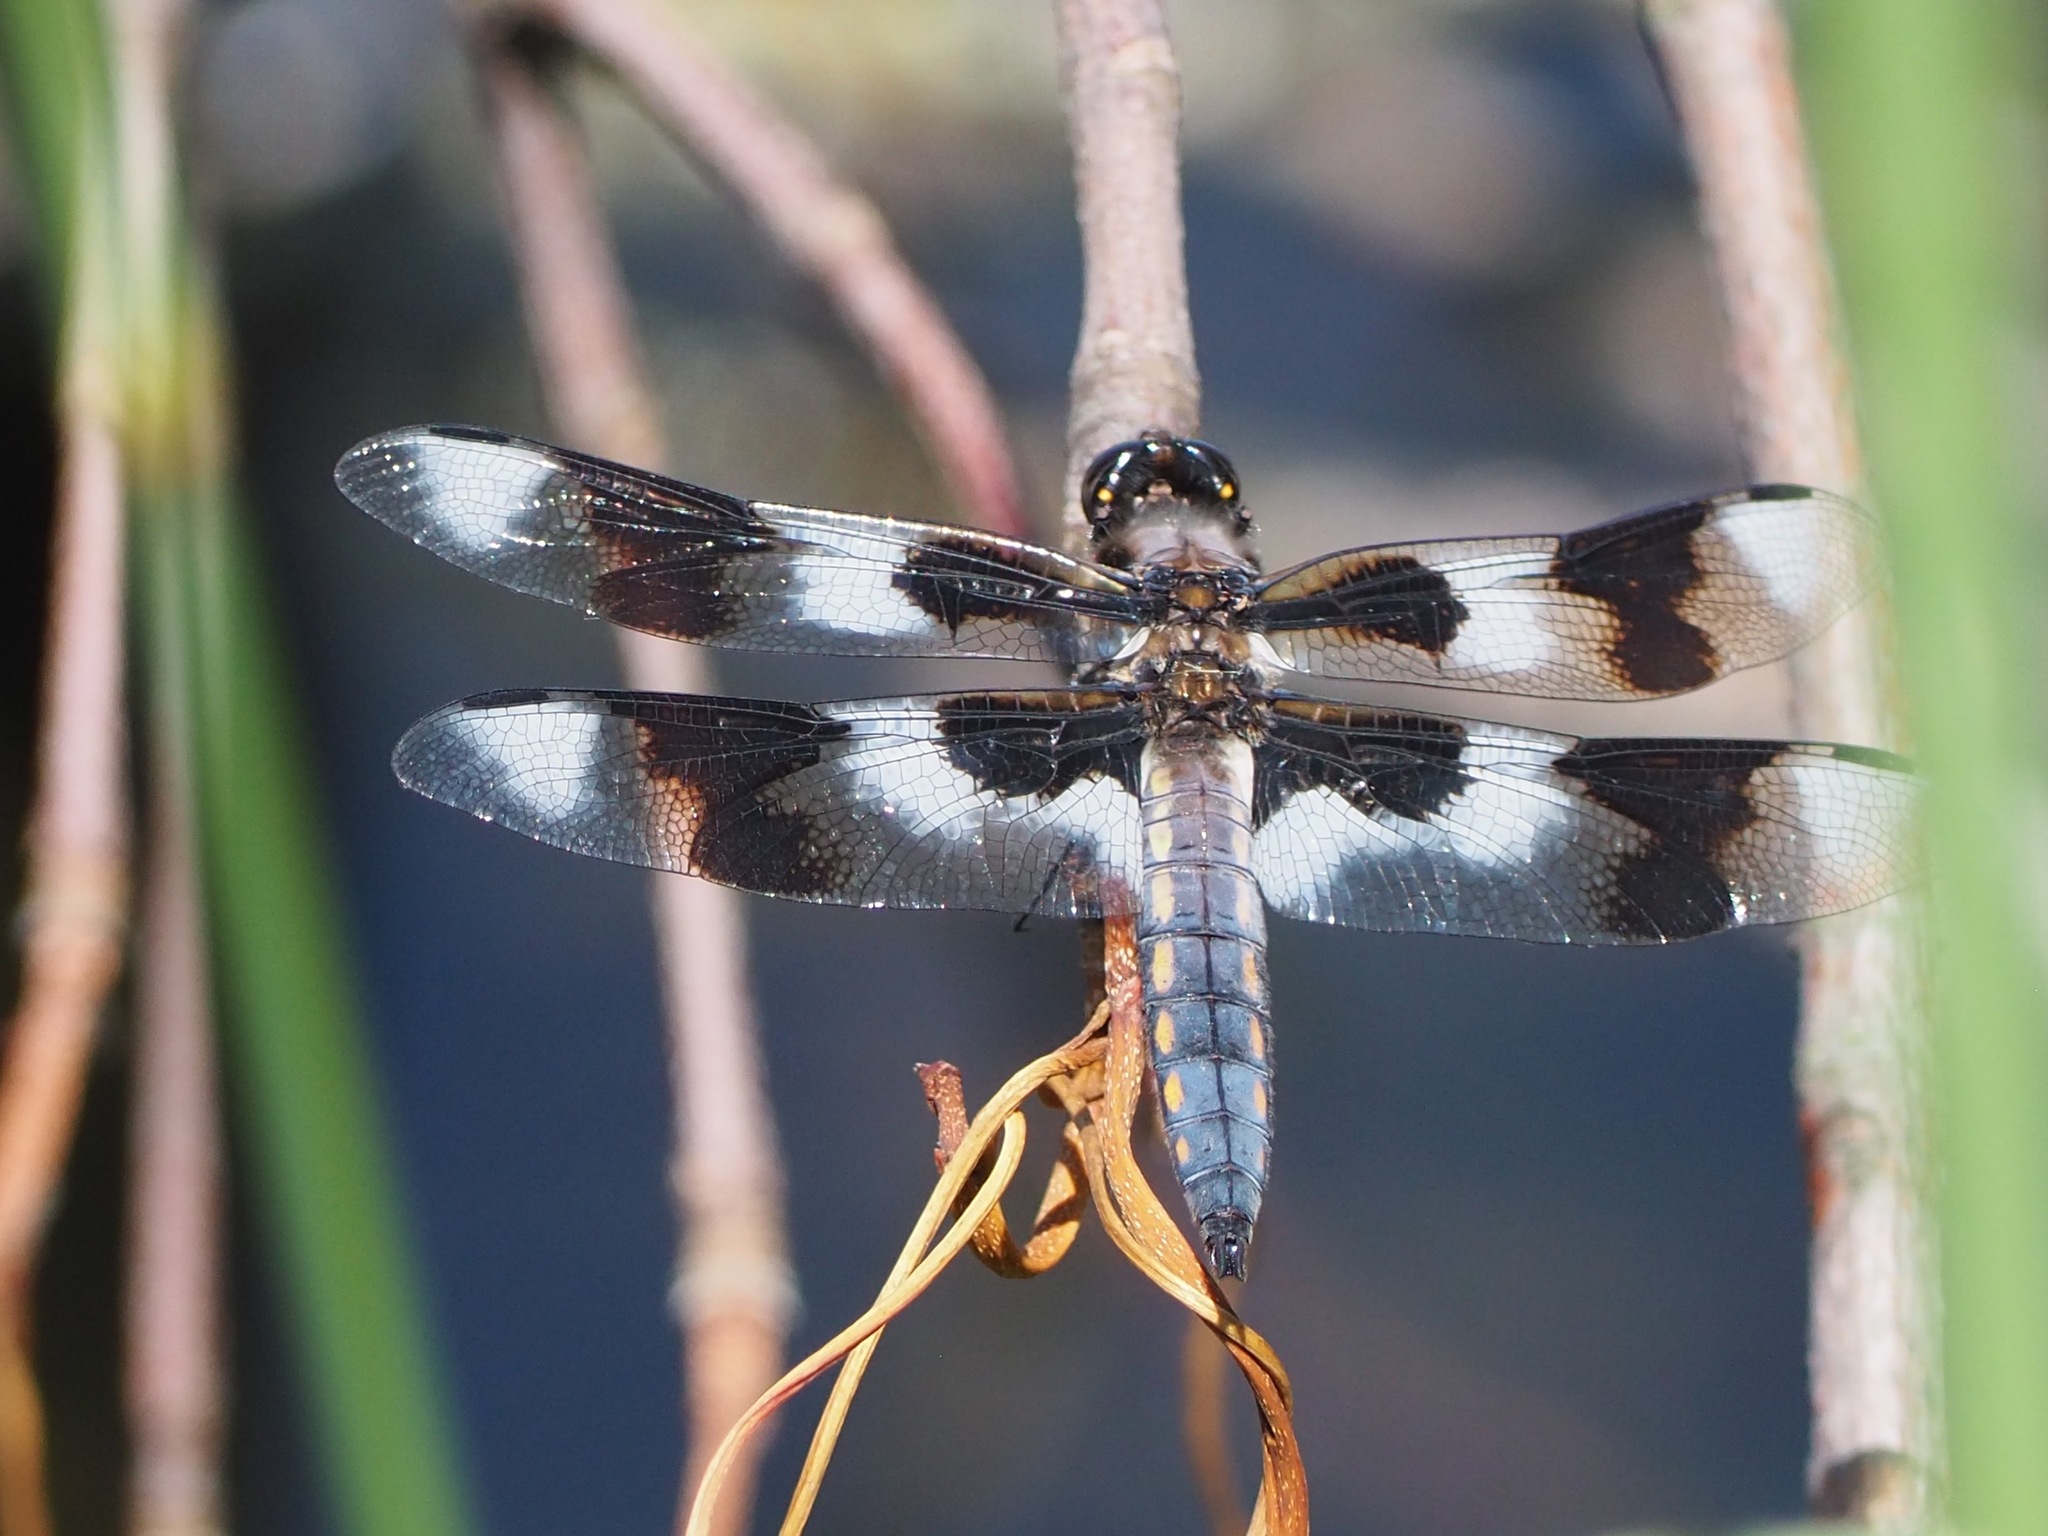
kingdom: Animalia
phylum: Arthropoda
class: Insecta
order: Odonata
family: Libellulidae
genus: Libellula
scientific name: Libellula forensis
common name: Eight-spotted skimmer
